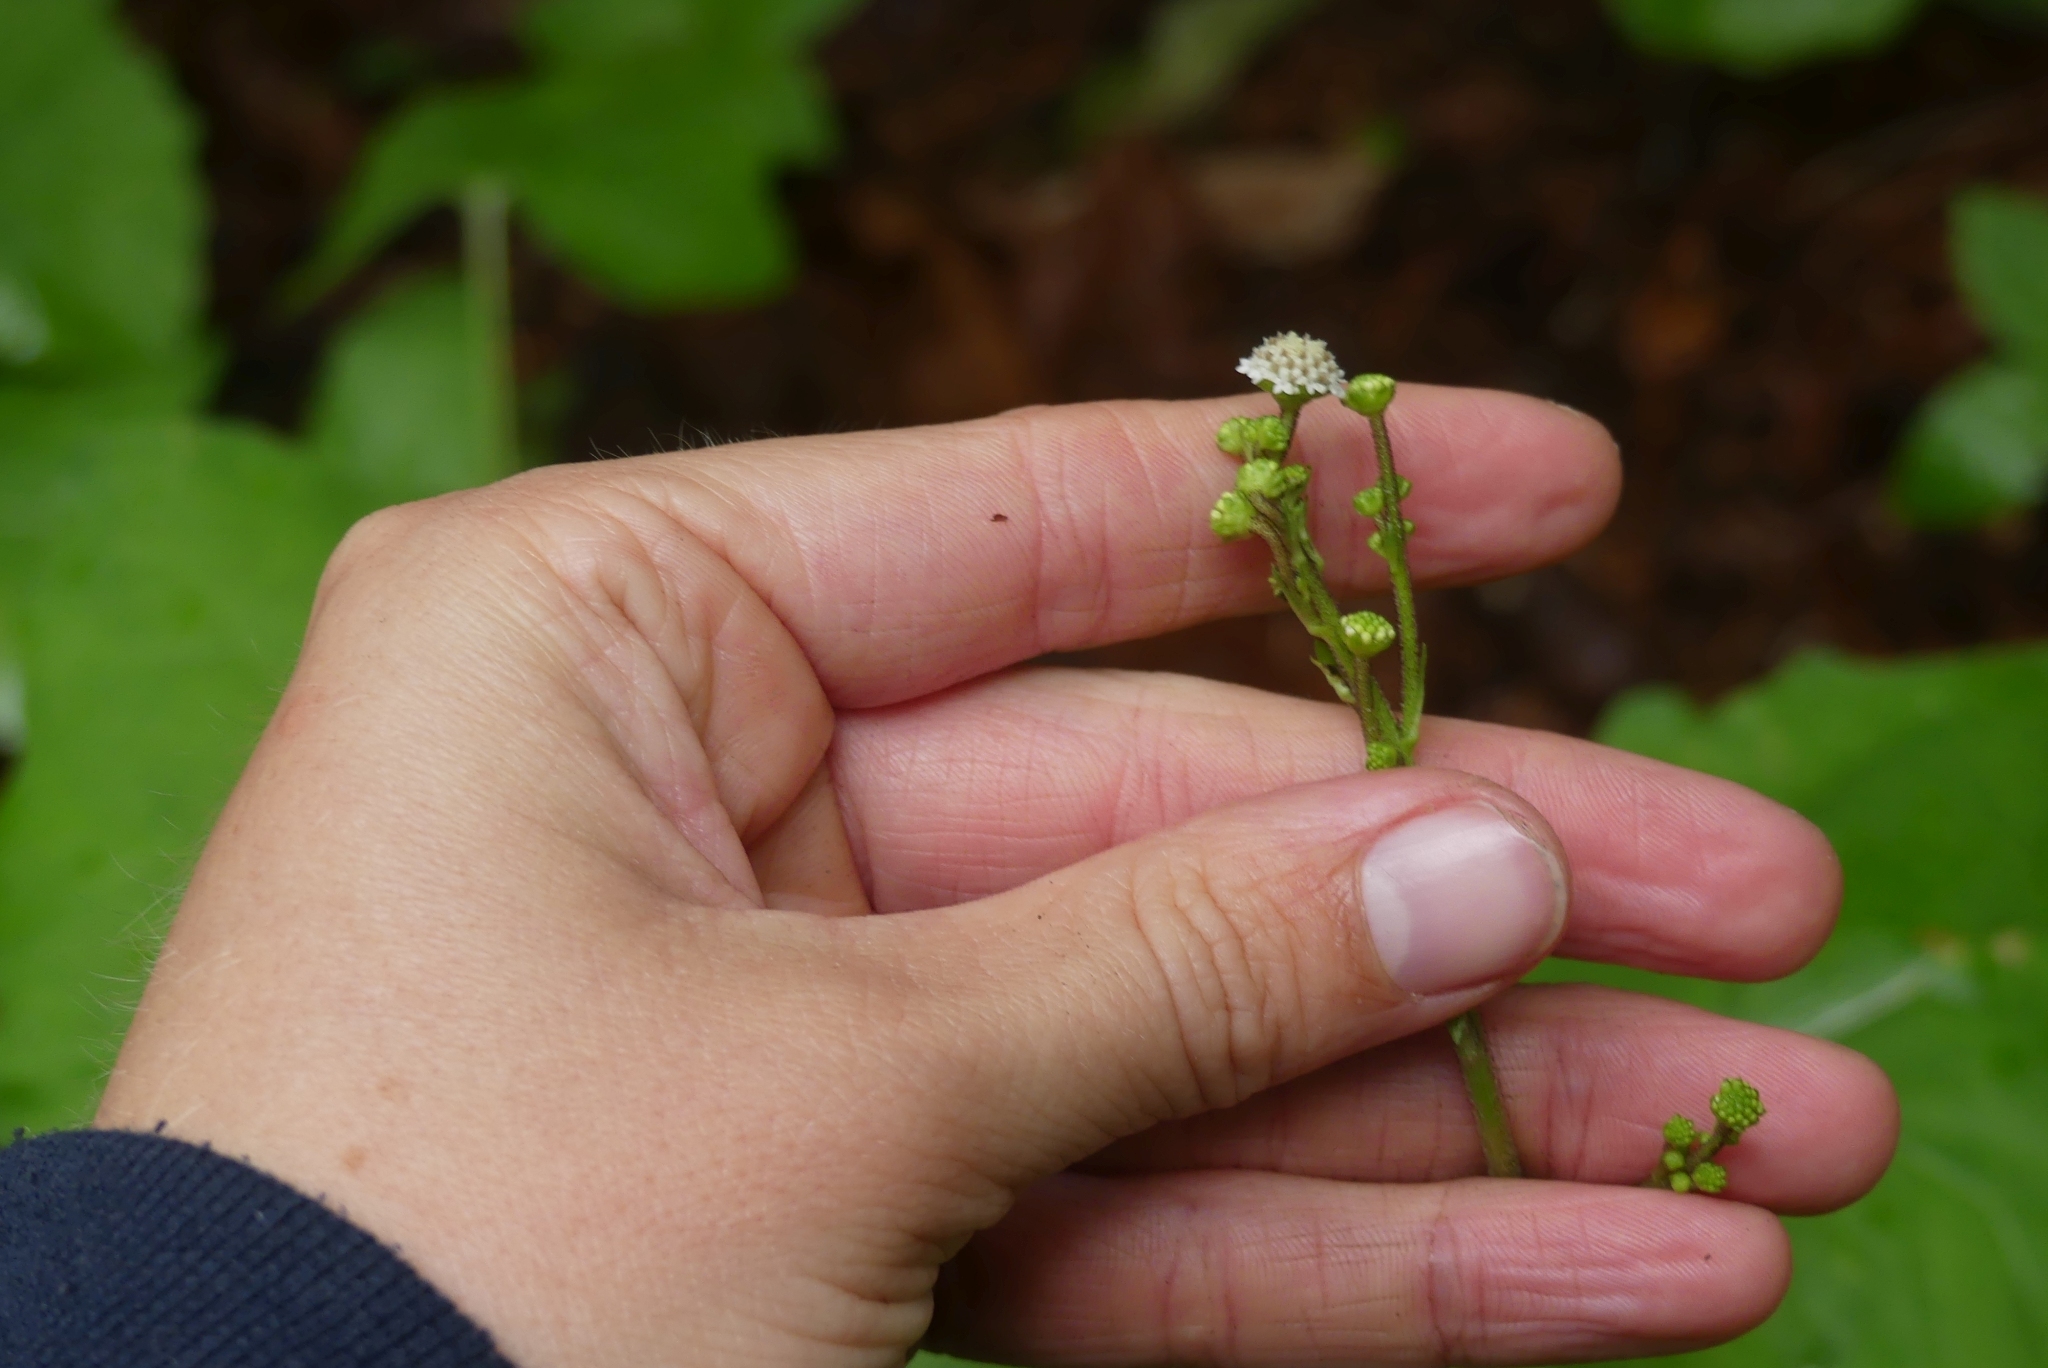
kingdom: Plantae
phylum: Tracheophyta
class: Magnoliopsida
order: Asterales
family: Asteraceae
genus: Adenocaulon
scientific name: Adenocaulon bicolor
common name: Trailplant
